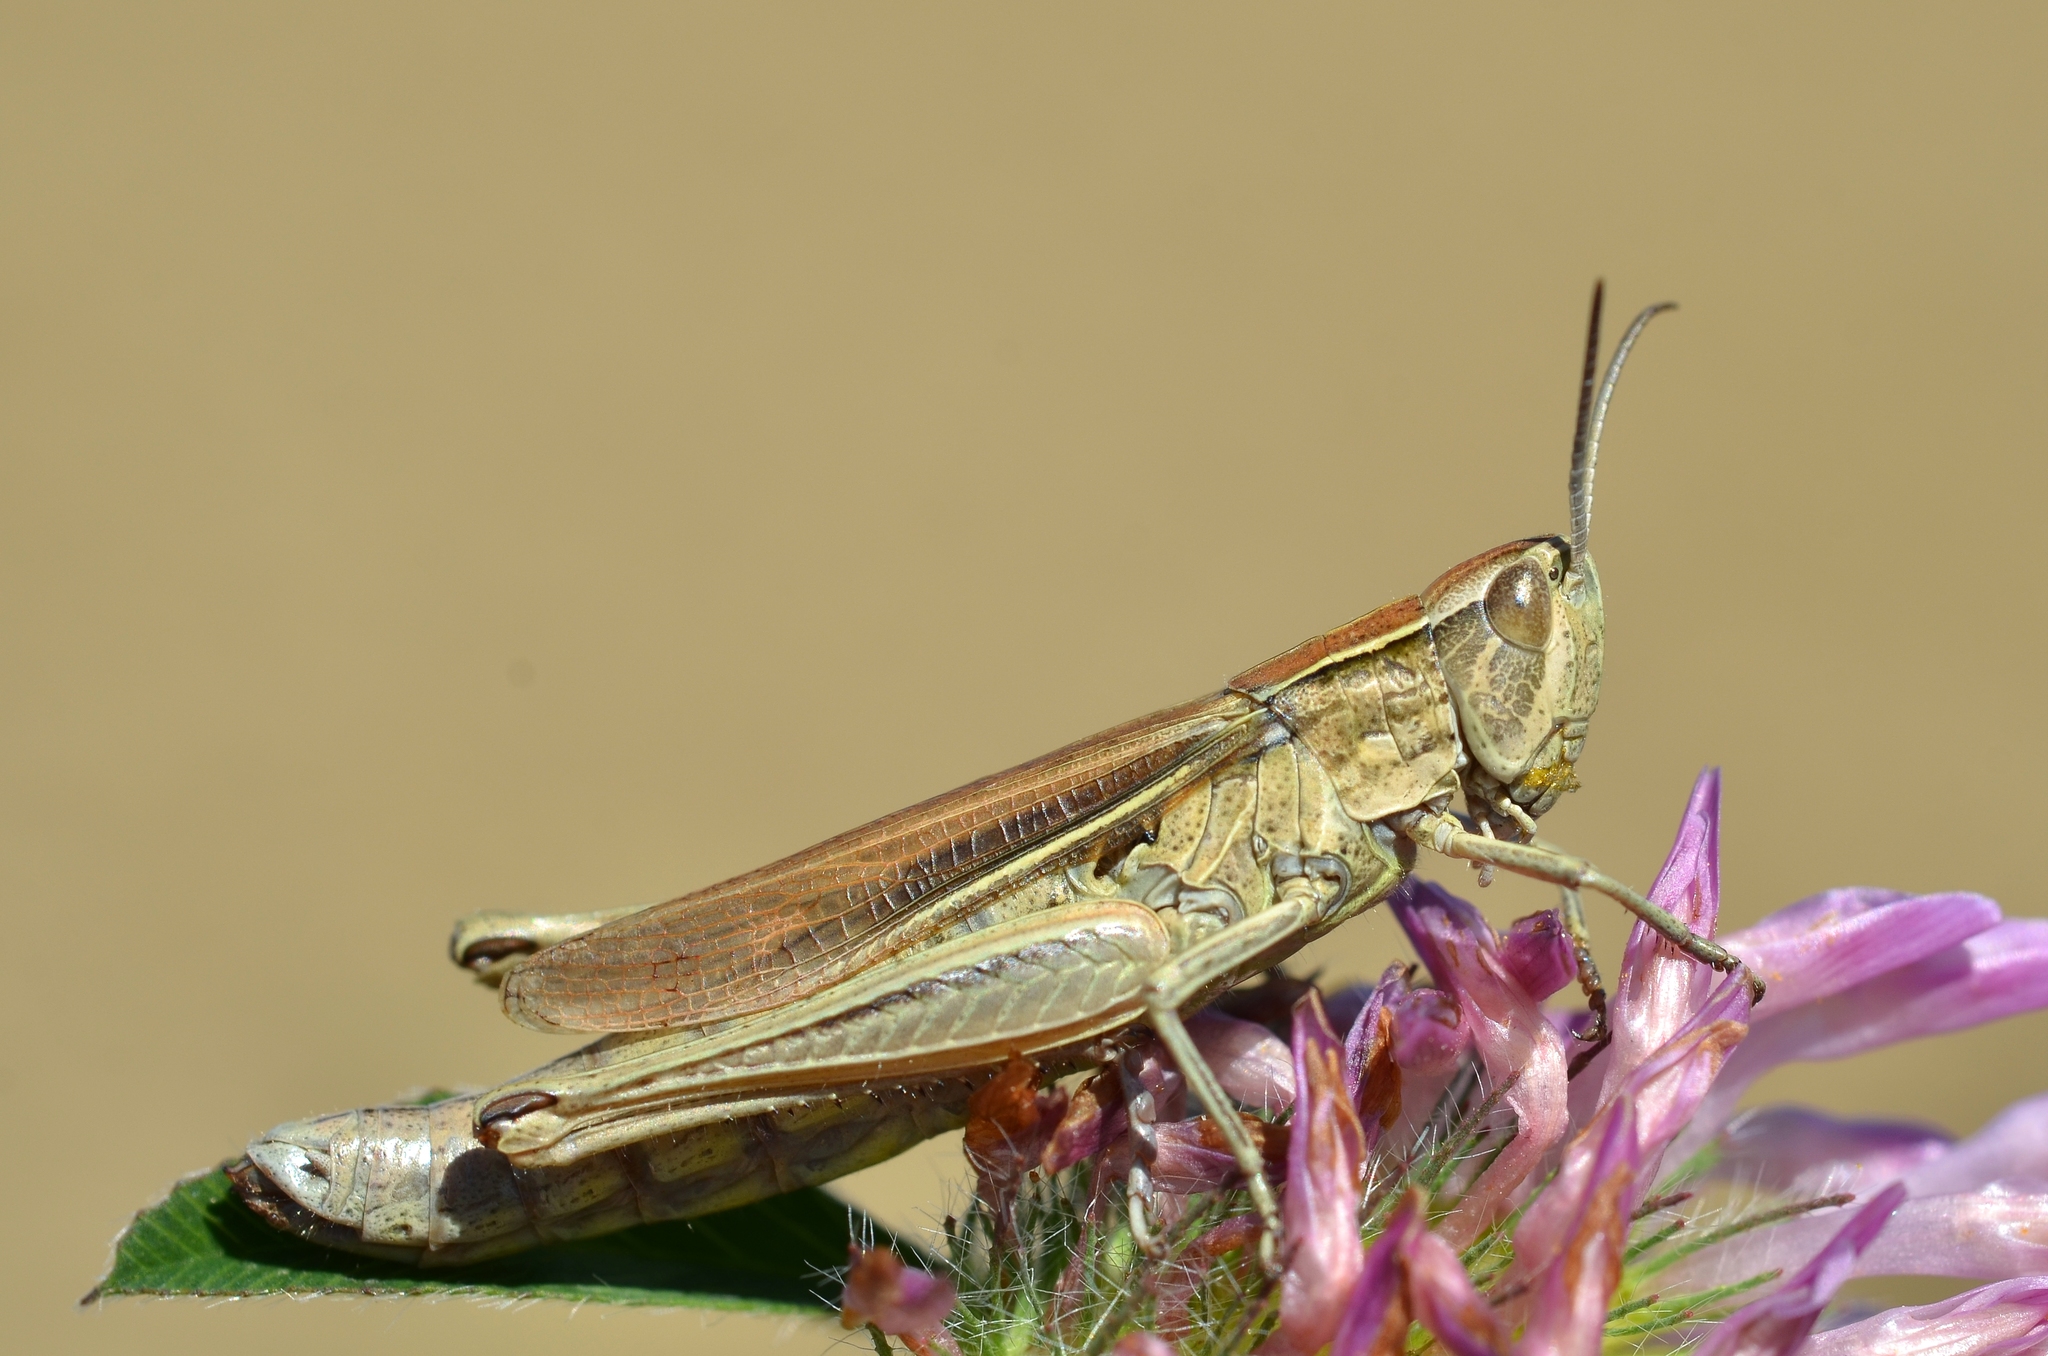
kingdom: Animalia
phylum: Arthropoda
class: Insecta
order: Orthoptera
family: Acrididae
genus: Chorthippus
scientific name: Chorthippus albomarginatus
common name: Lesser marsh grasshopper
